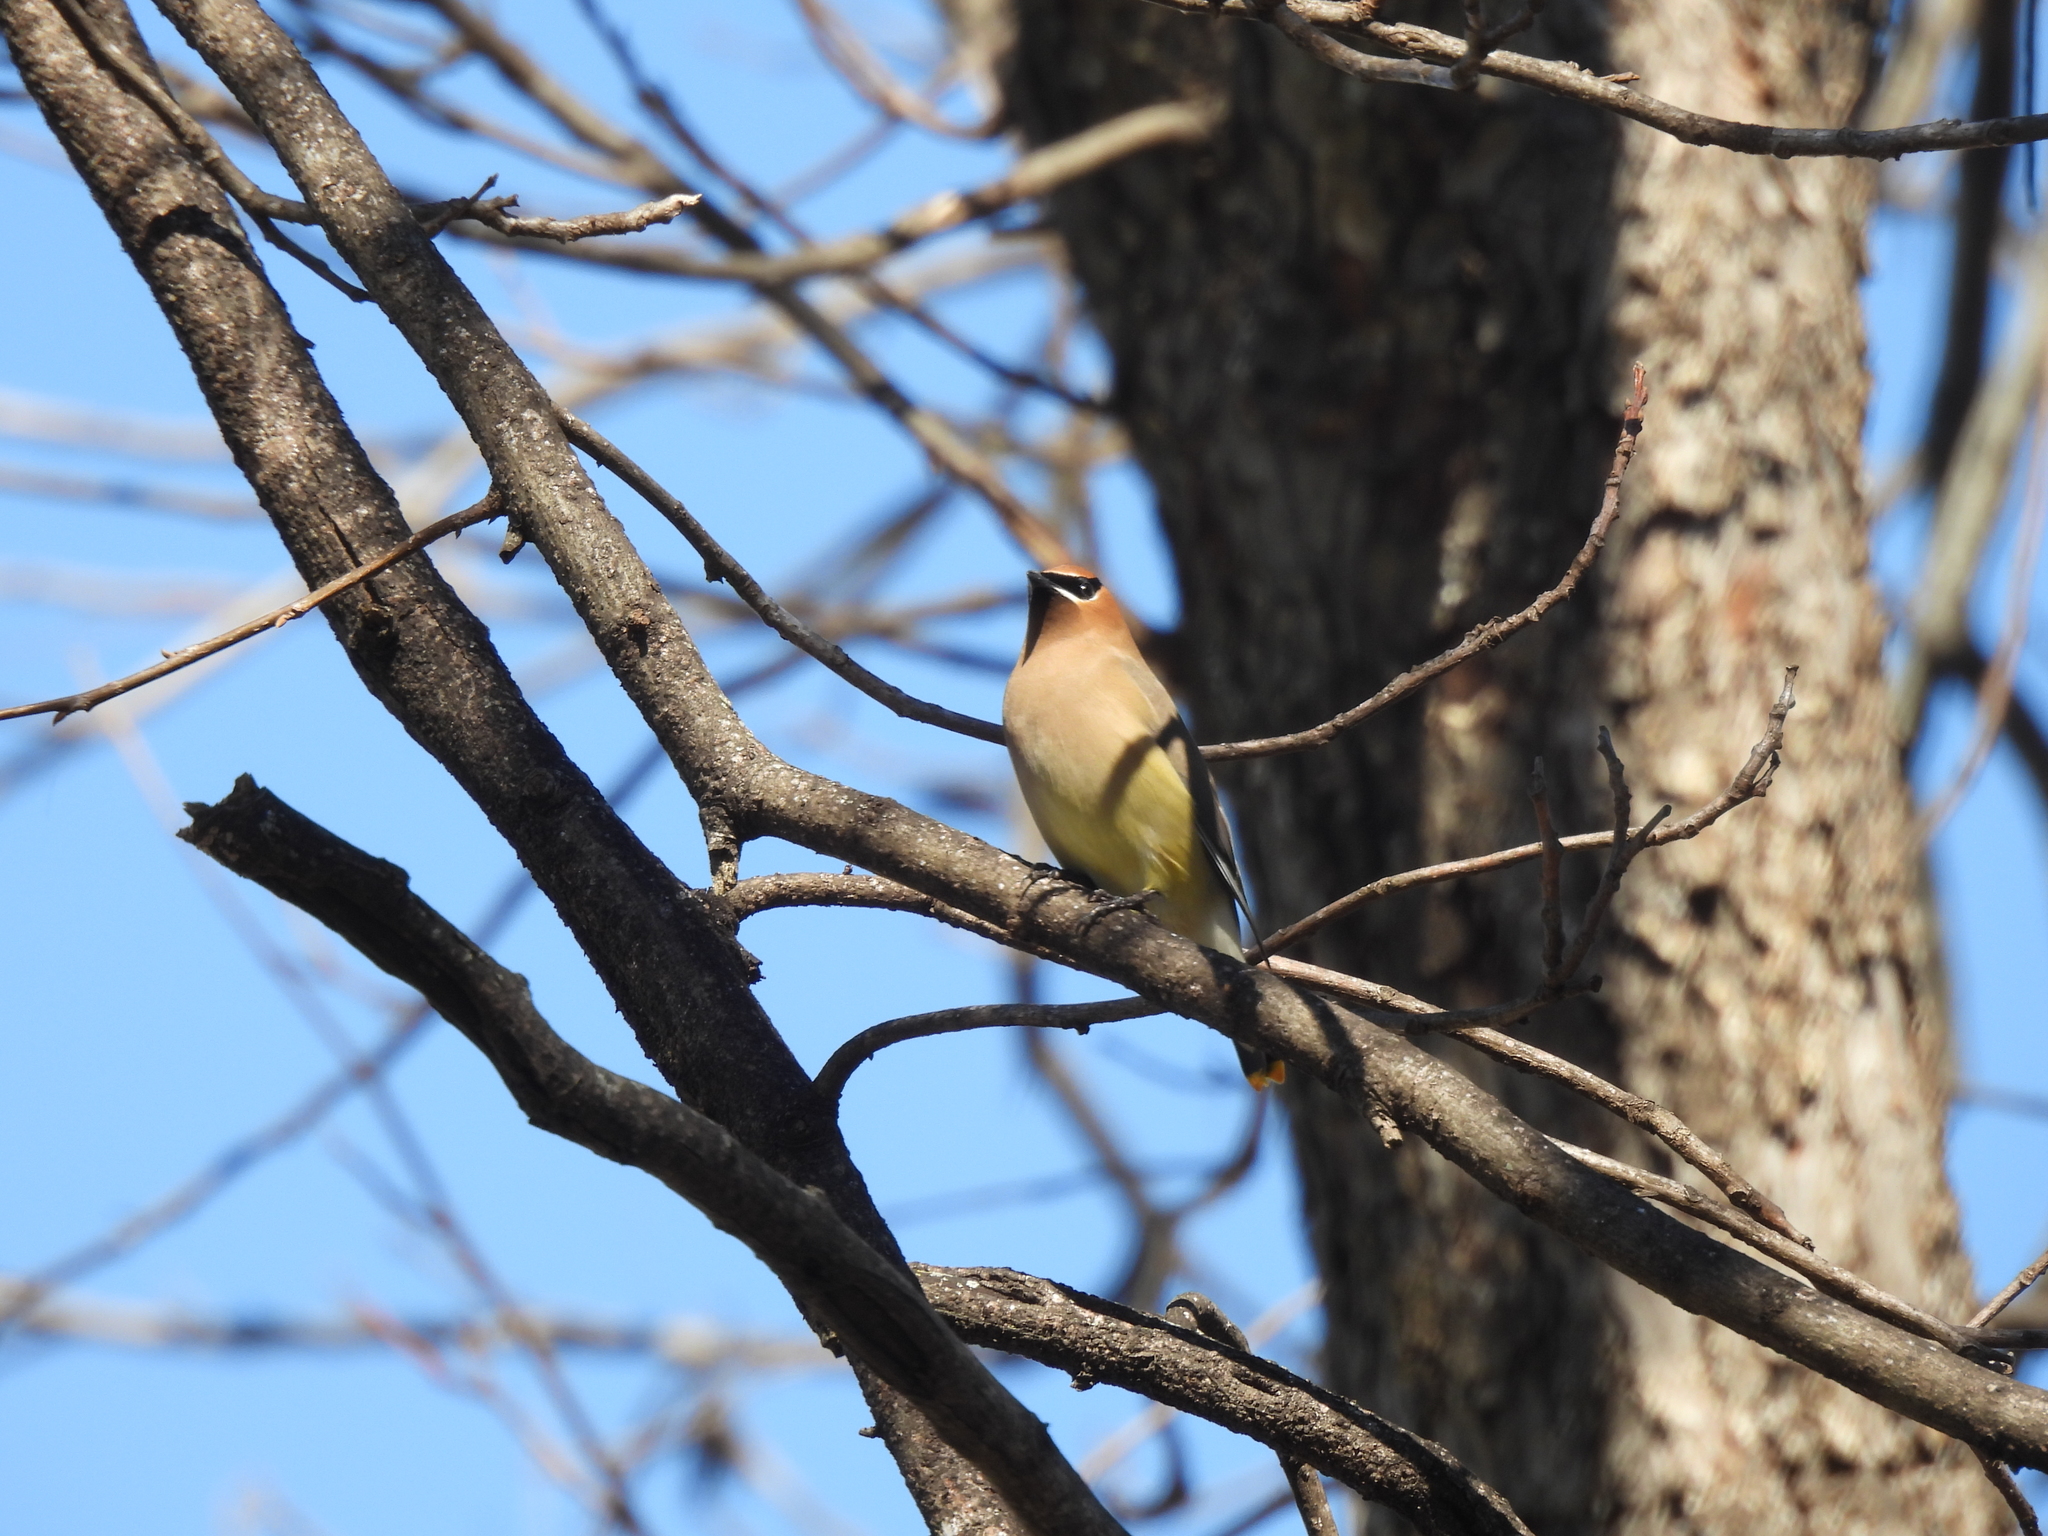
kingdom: Animalia
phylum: Chordata
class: Aves
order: Passeriformes
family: Bombycillidae
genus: Bombycilla
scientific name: Bombycilla cedrorum
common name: Cedar waxwing
